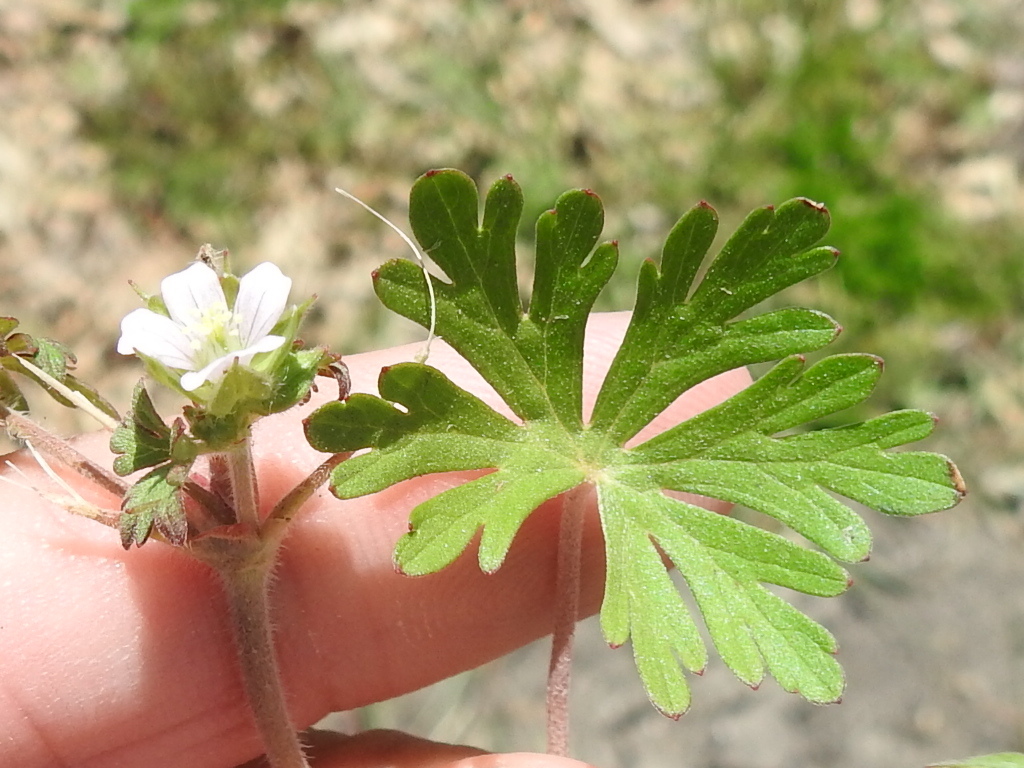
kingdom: Plantae
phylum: Tracheophyta
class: Magnoliopsida
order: Geraniales
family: Geraniaceae
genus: Geranium
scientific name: Geranium carolinianum
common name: Carolina crane's-bill
